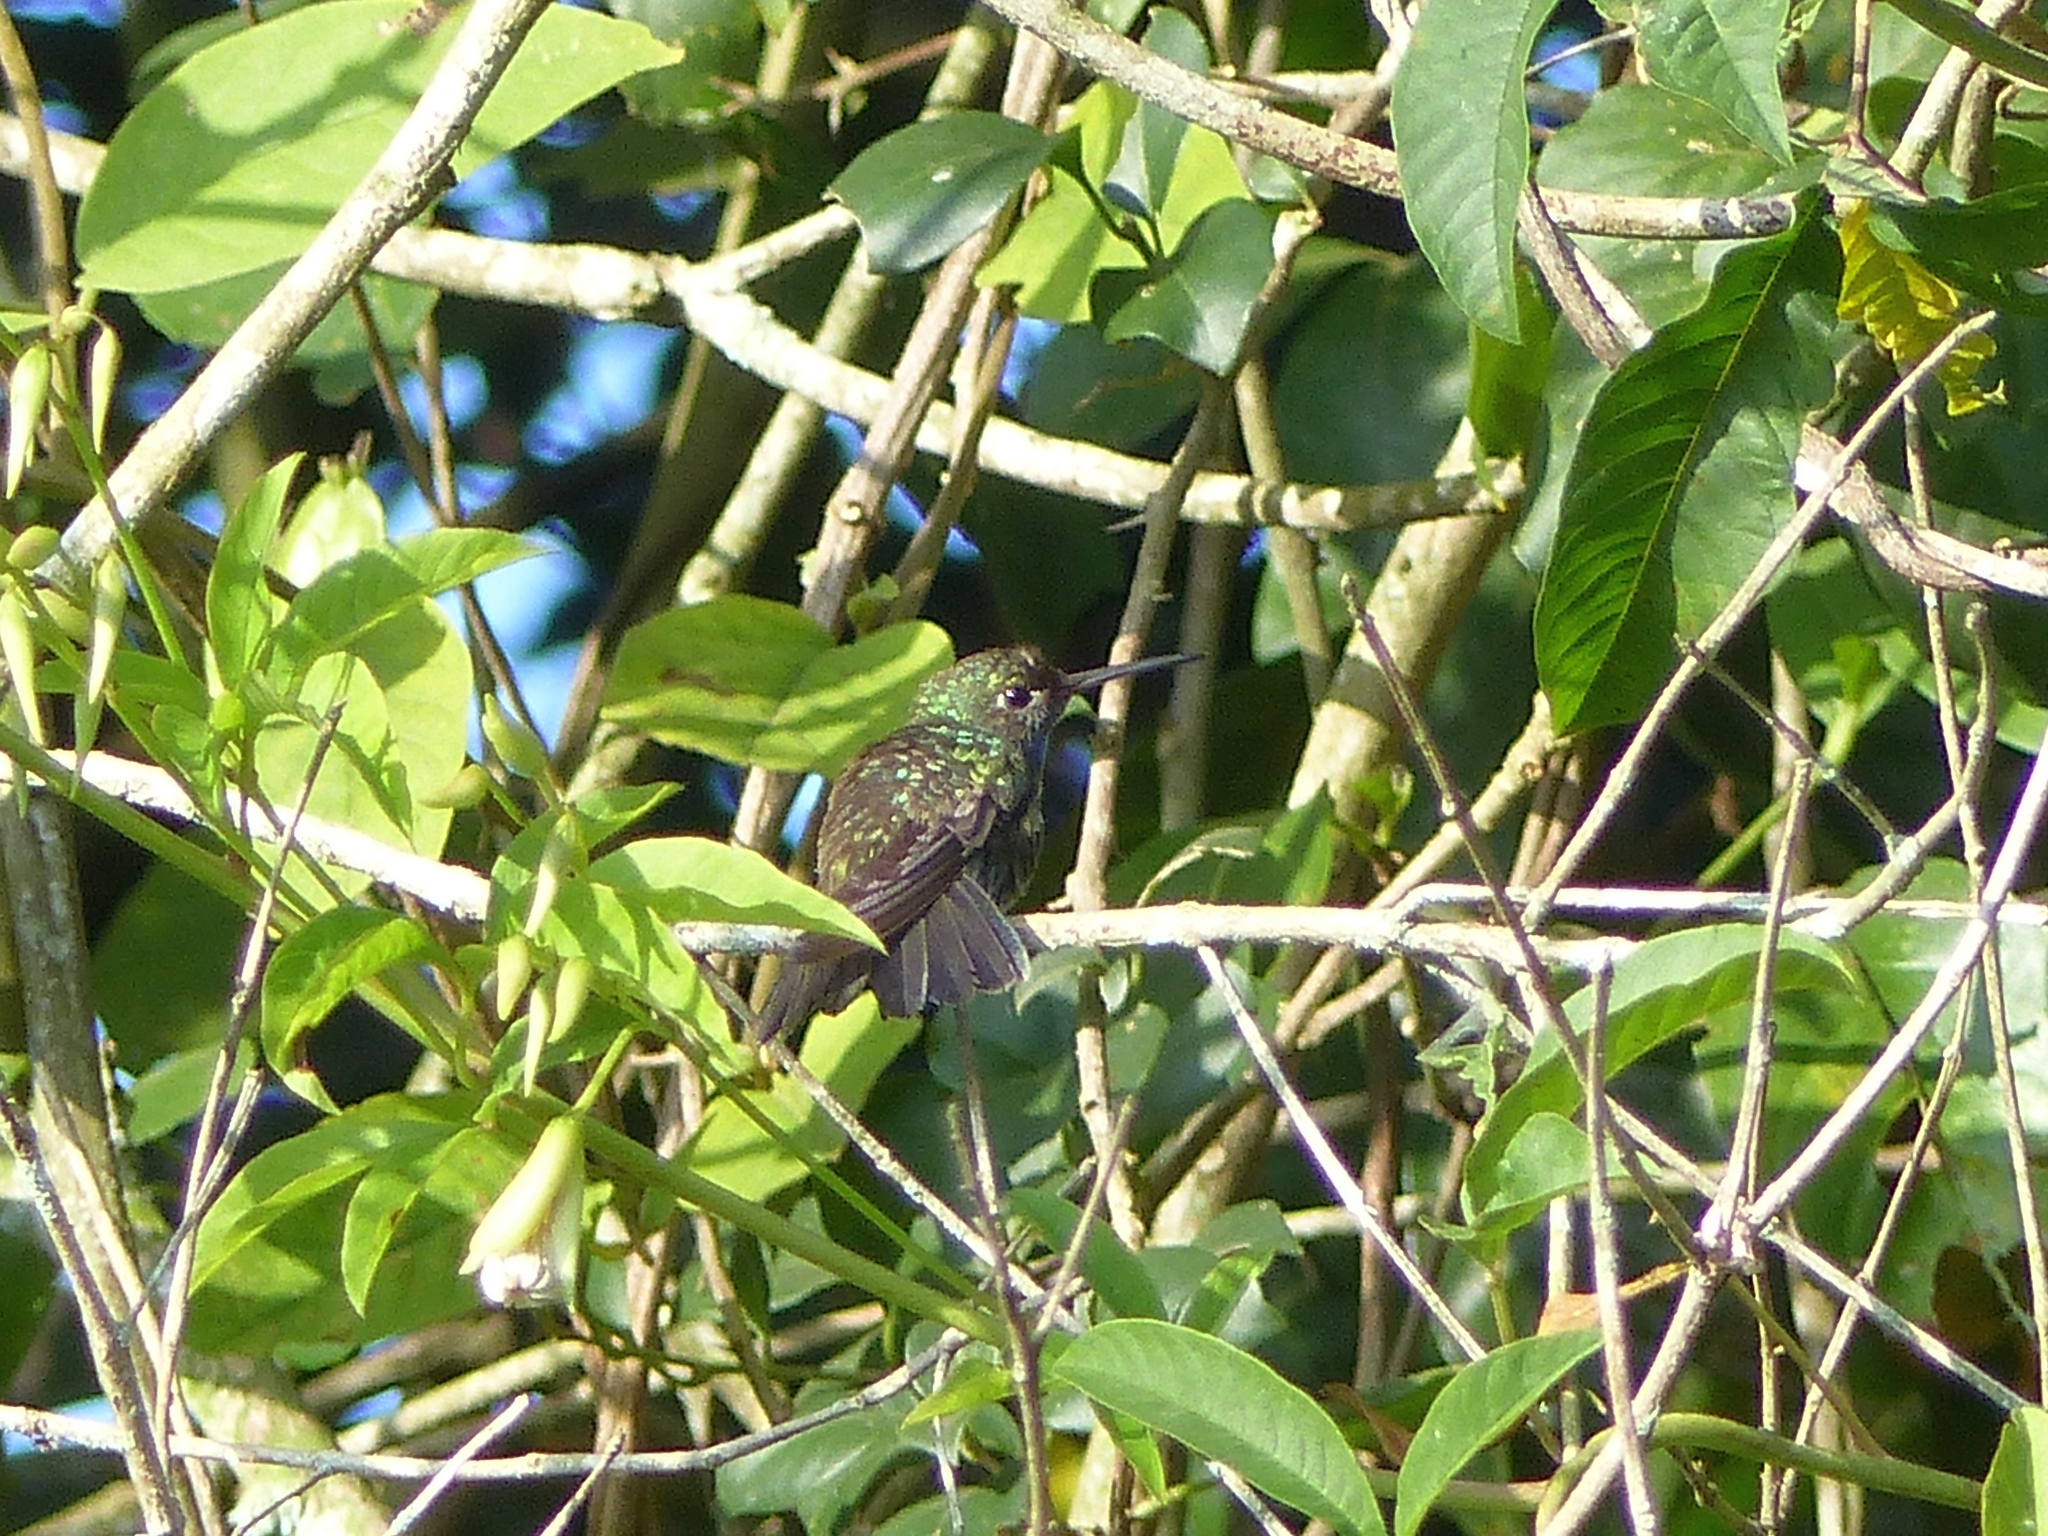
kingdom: Animalia
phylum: Chordata
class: Aves
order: Apodiformes
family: Trochilidae
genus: Chionomesa
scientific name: Chionomesa fimbriata
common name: Glittering-throated emerald
